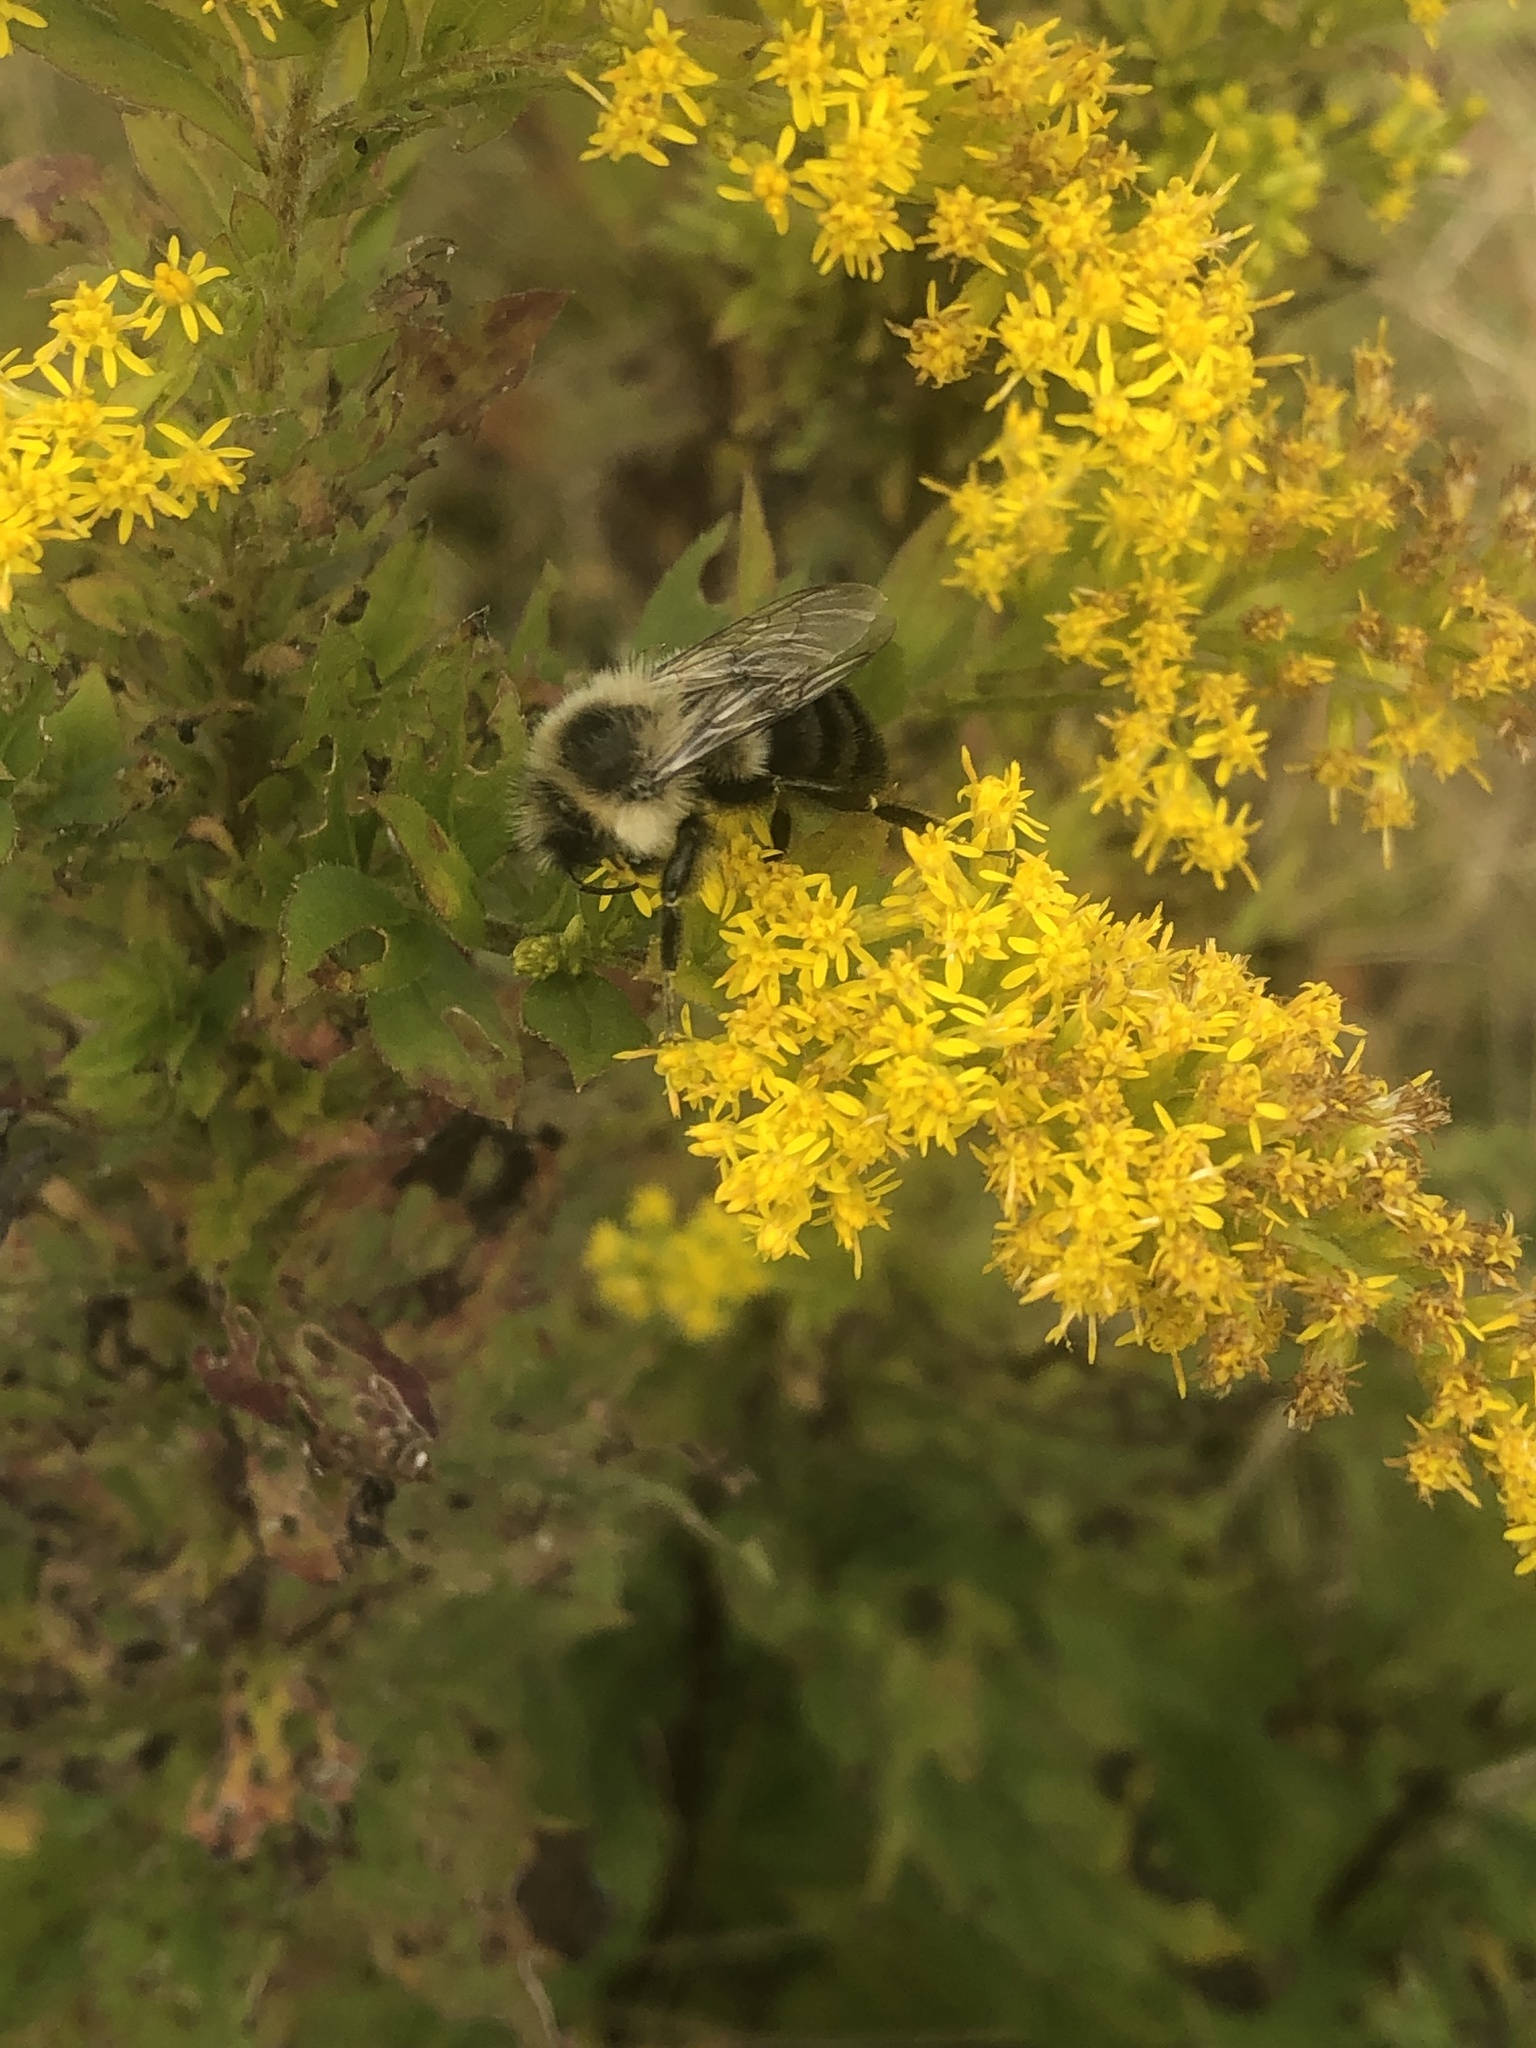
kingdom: Animalia
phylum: Arthropoda
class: Insecta
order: Hymenoptera
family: Apidae
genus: Bombus
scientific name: Bombus impatiens
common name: Common eastern bumble bee
